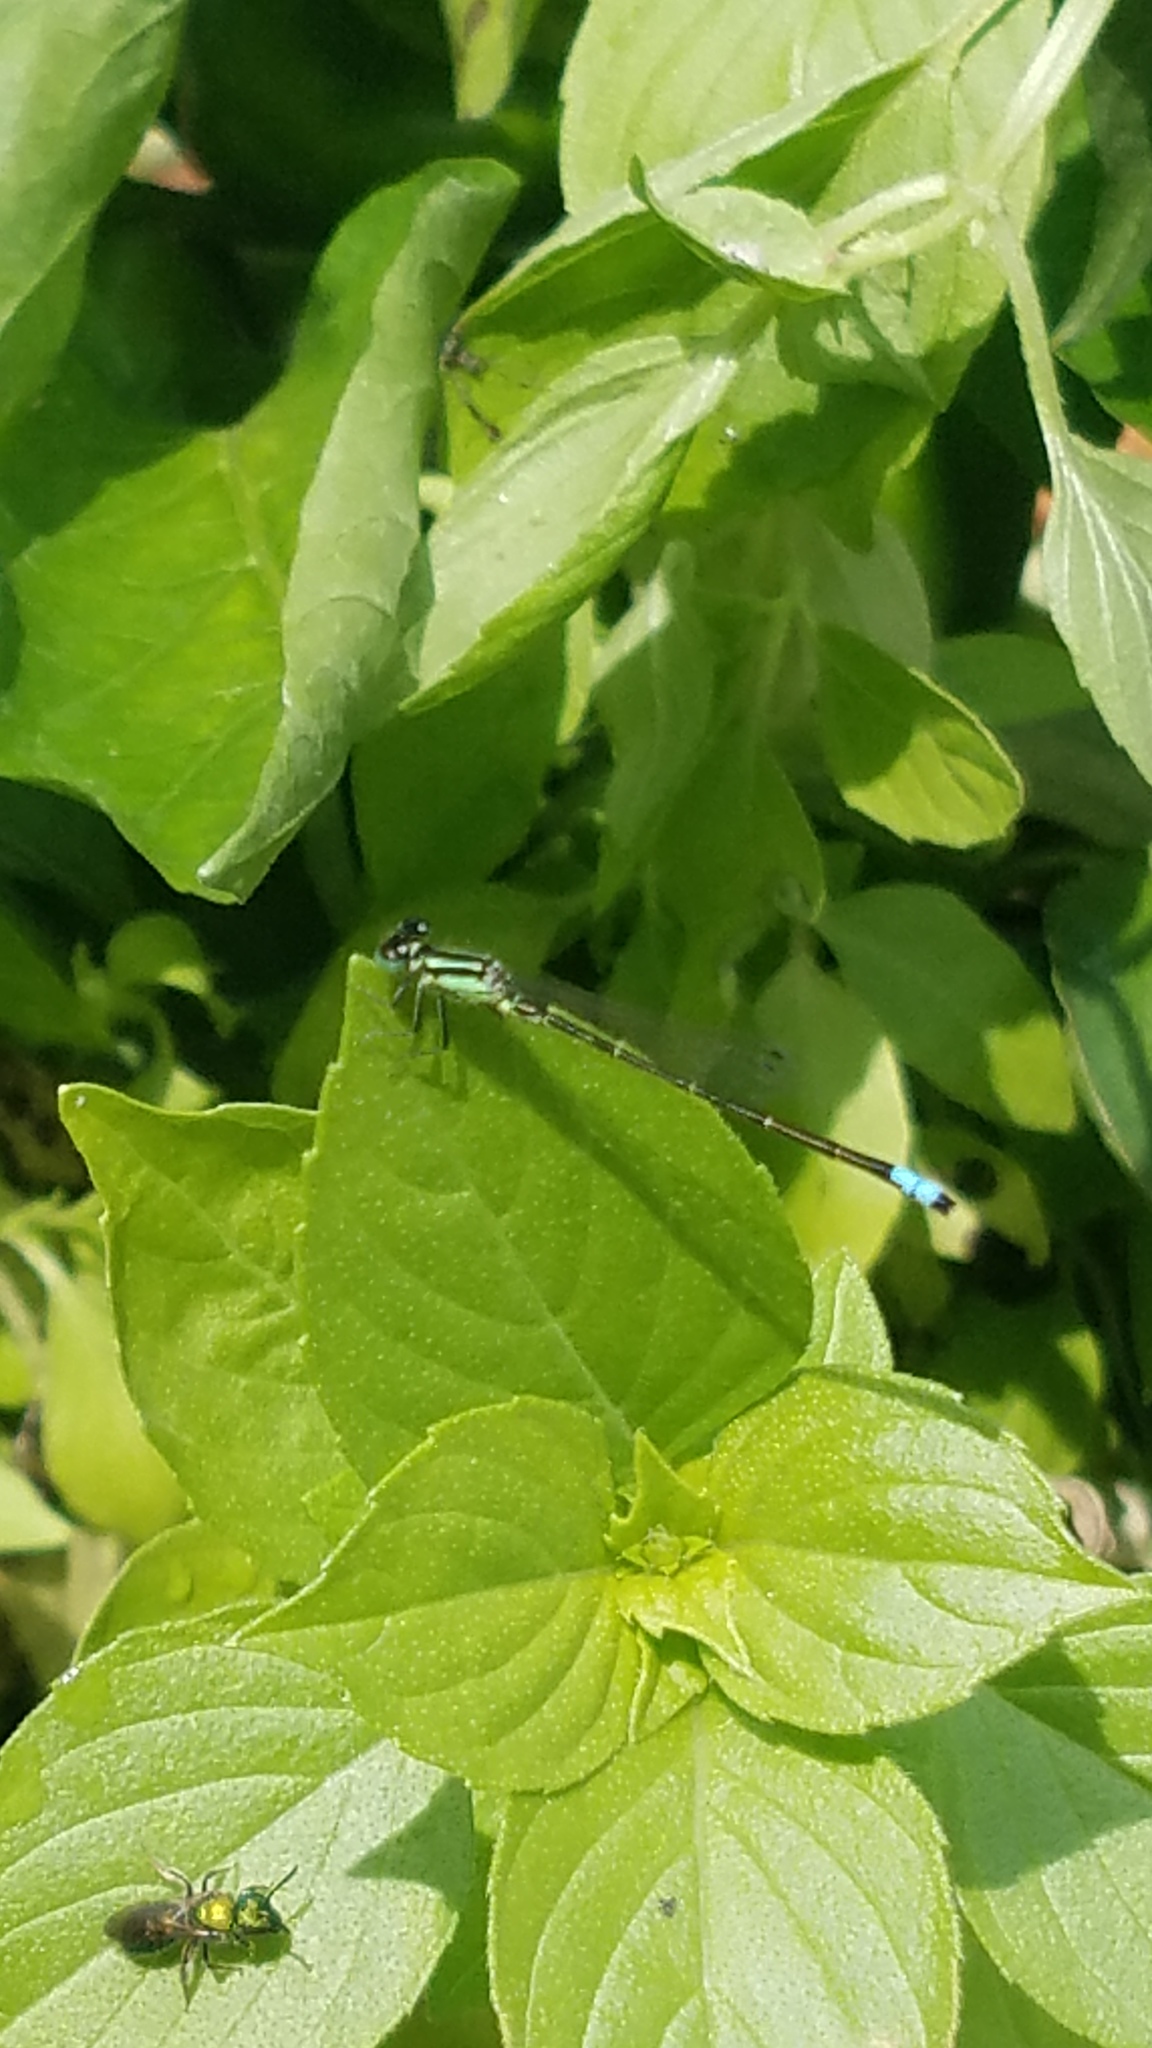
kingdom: Animalia
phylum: Arthropoda
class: Insecta
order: Odonata
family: Coenagrionidae
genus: Ischnura
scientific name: Ischnura verticalis
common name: Eastern forktail
